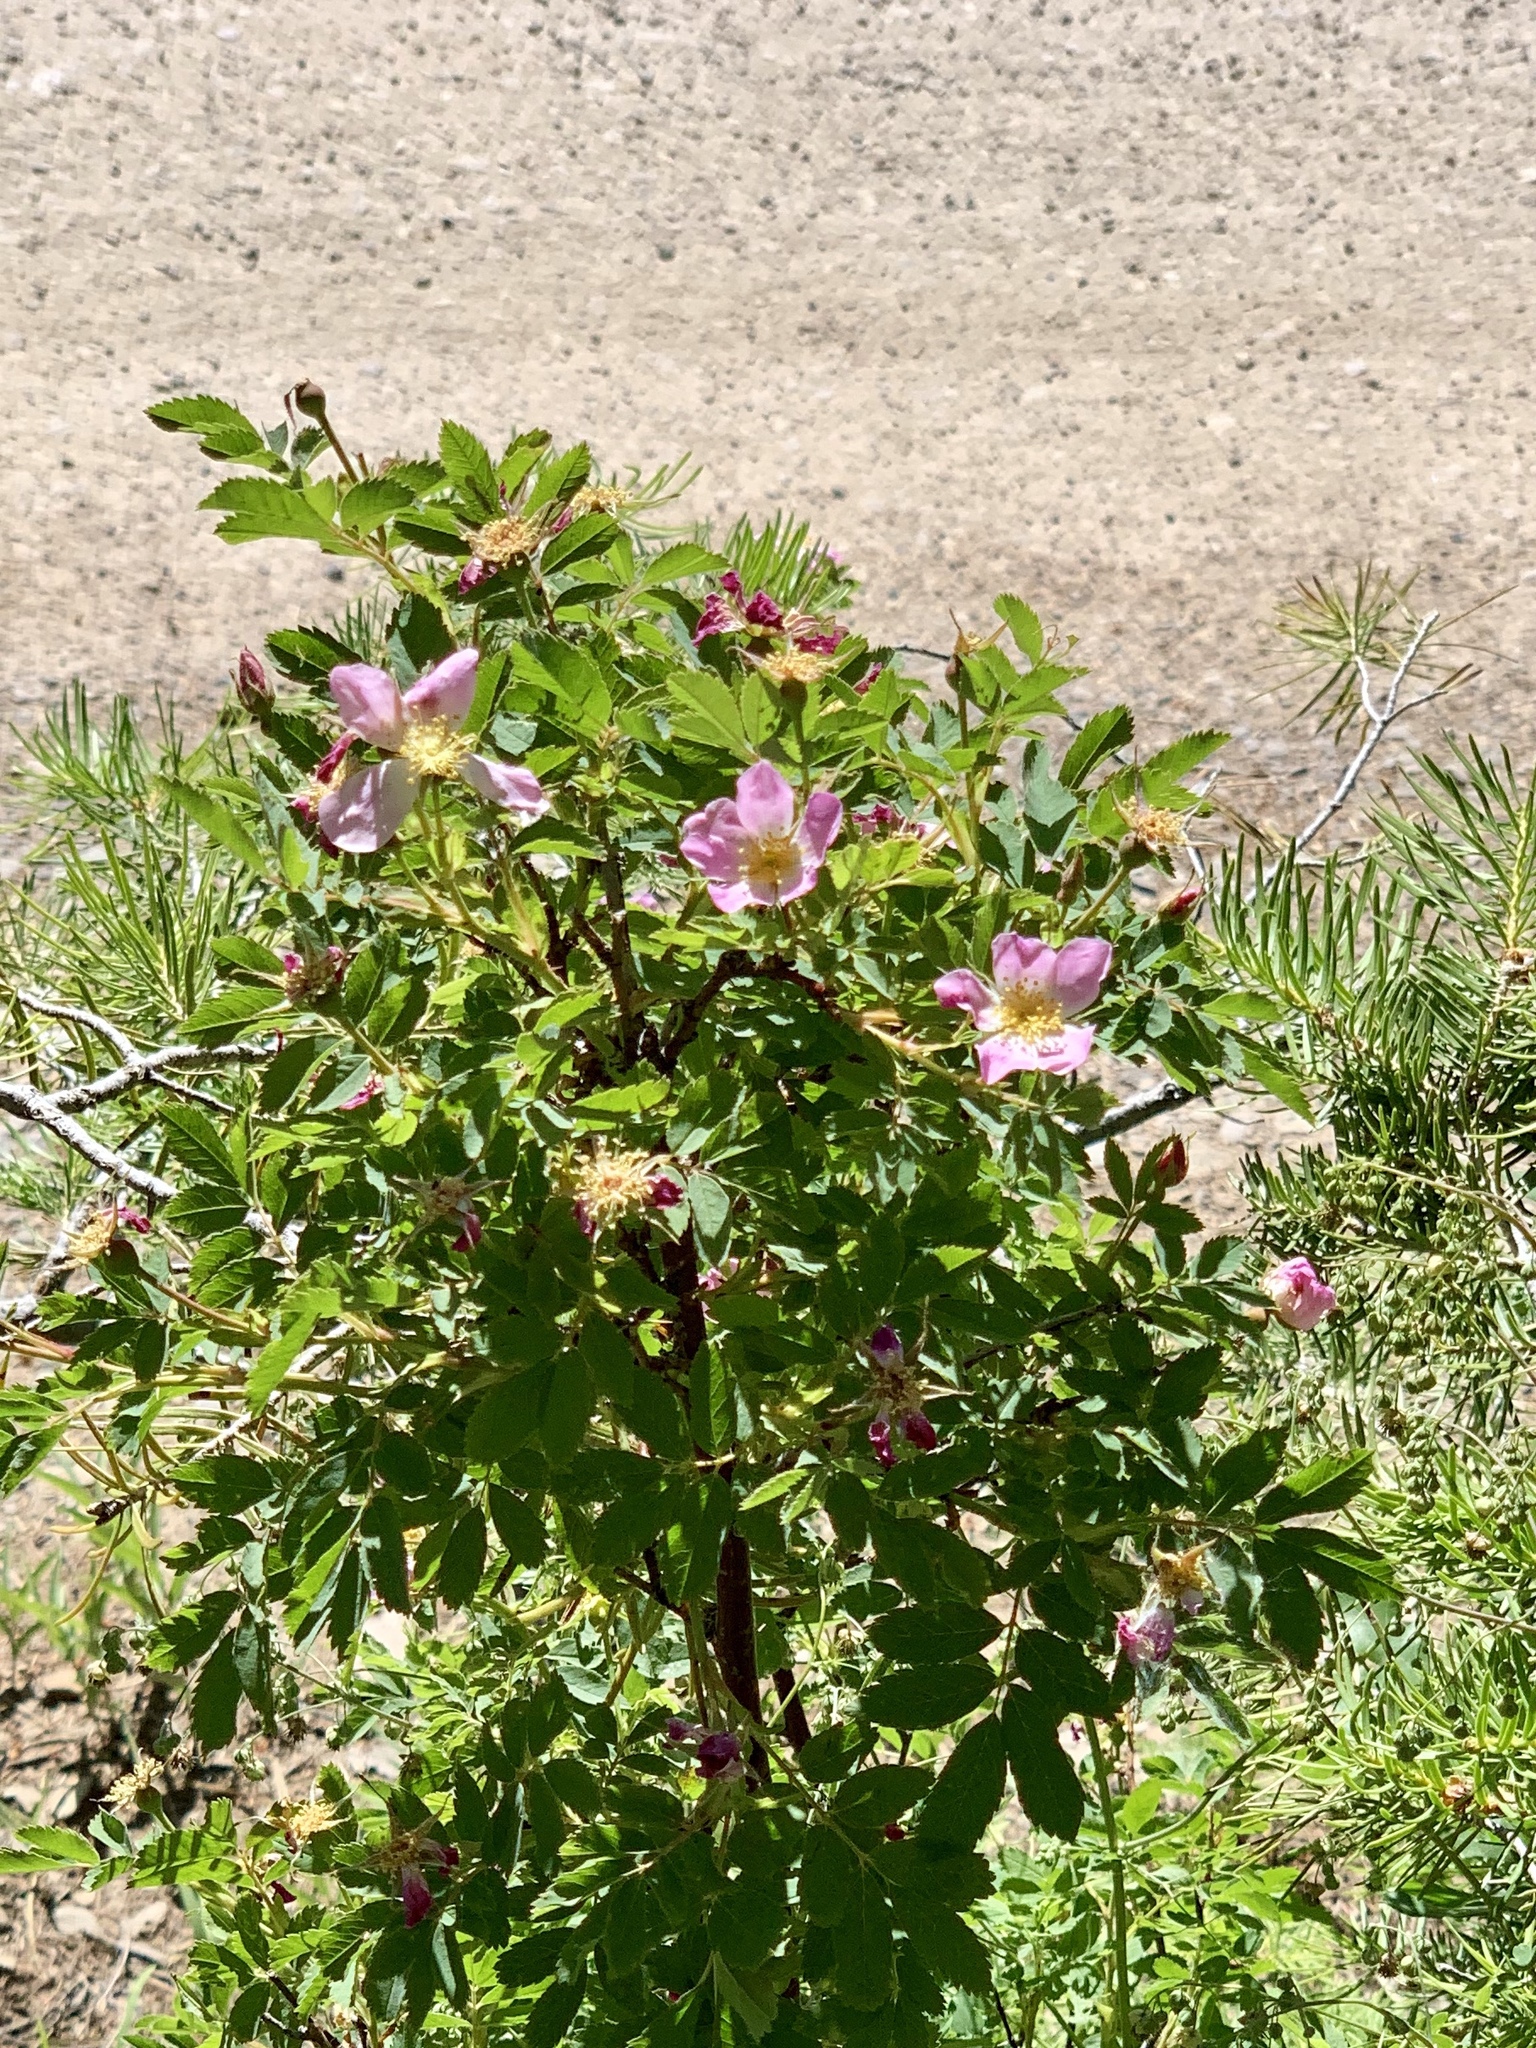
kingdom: Plantae
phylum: Tracheophyta
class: Magnoliopsida
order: Rosales
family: Rosaceae
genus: Rosa
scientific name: Rosa woodsii
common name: Woods's rose
